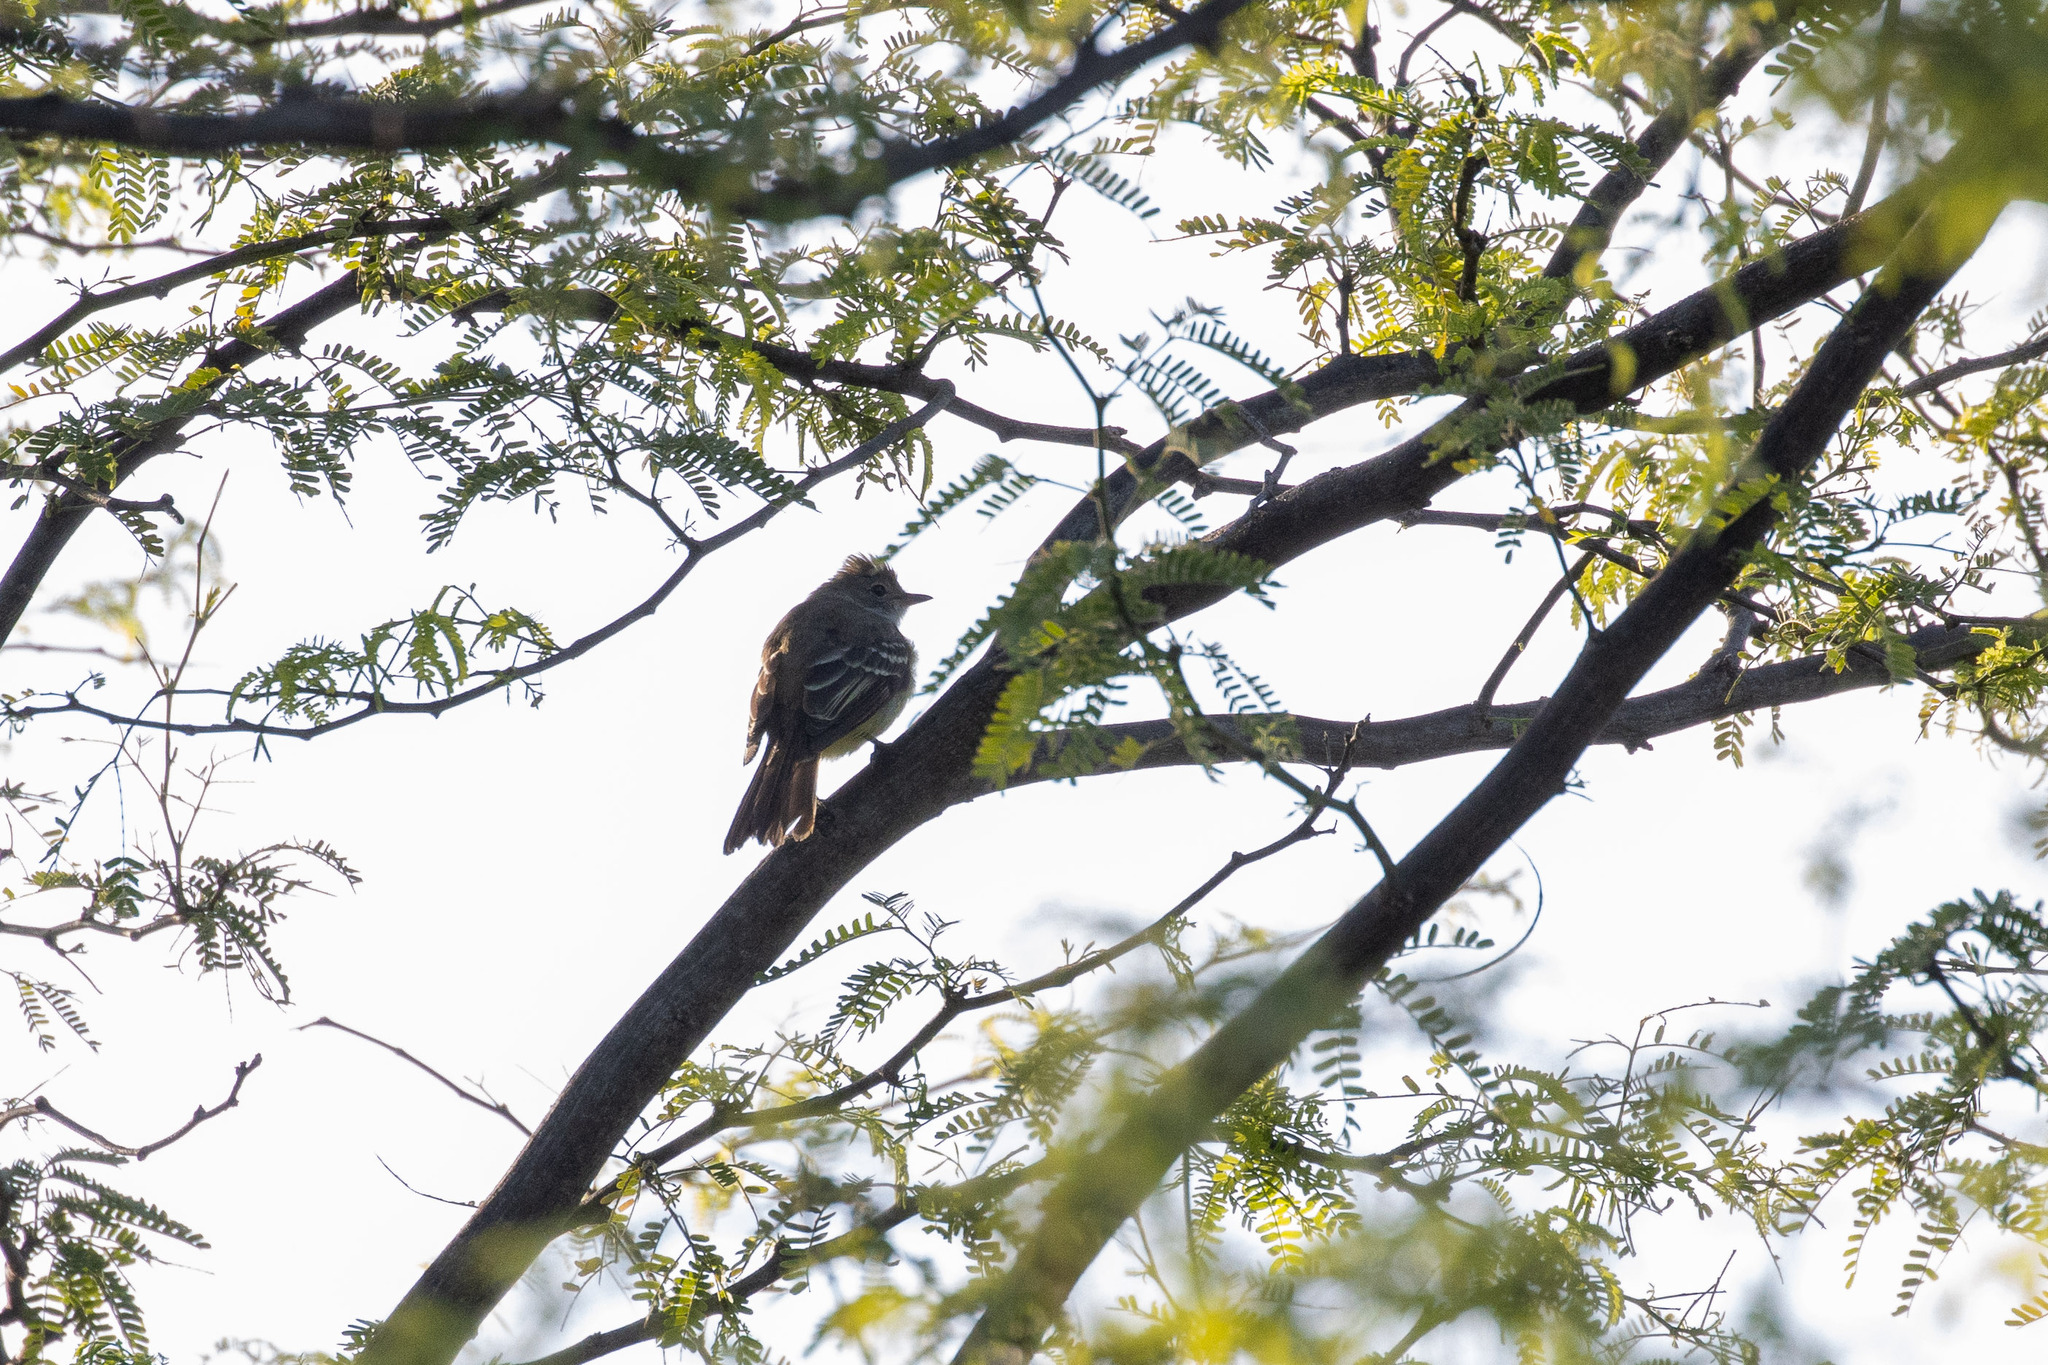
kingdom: Animalia
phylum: Chordata
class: Aves
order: Passeriformes
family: Tyrannidae
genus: Elaenia
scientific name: Elaenia spectabilis
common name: Large elaenia
